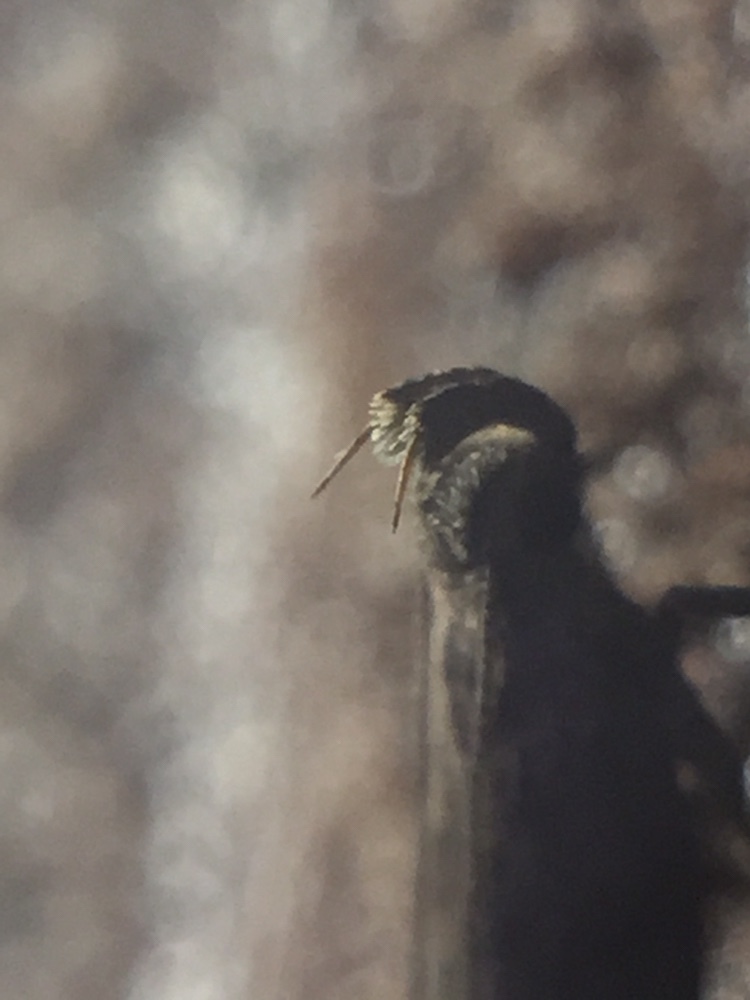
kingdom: Animalia
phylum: Arthropoda
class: Insecta
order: Lepidoptera
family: Depressariidae
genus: Eutorna
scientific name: Eutorna phaulocosma
